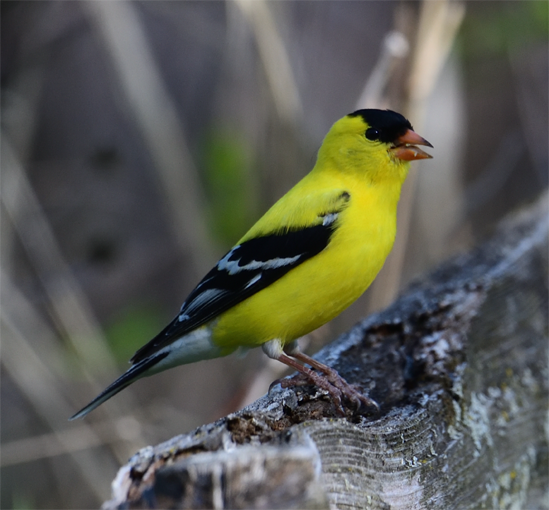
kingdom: Animalia
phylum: Chordata
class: Aves
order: Passeriformes
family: Fringillidae
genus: Spinus
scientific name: Spinus tristis
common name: American goldfinch
